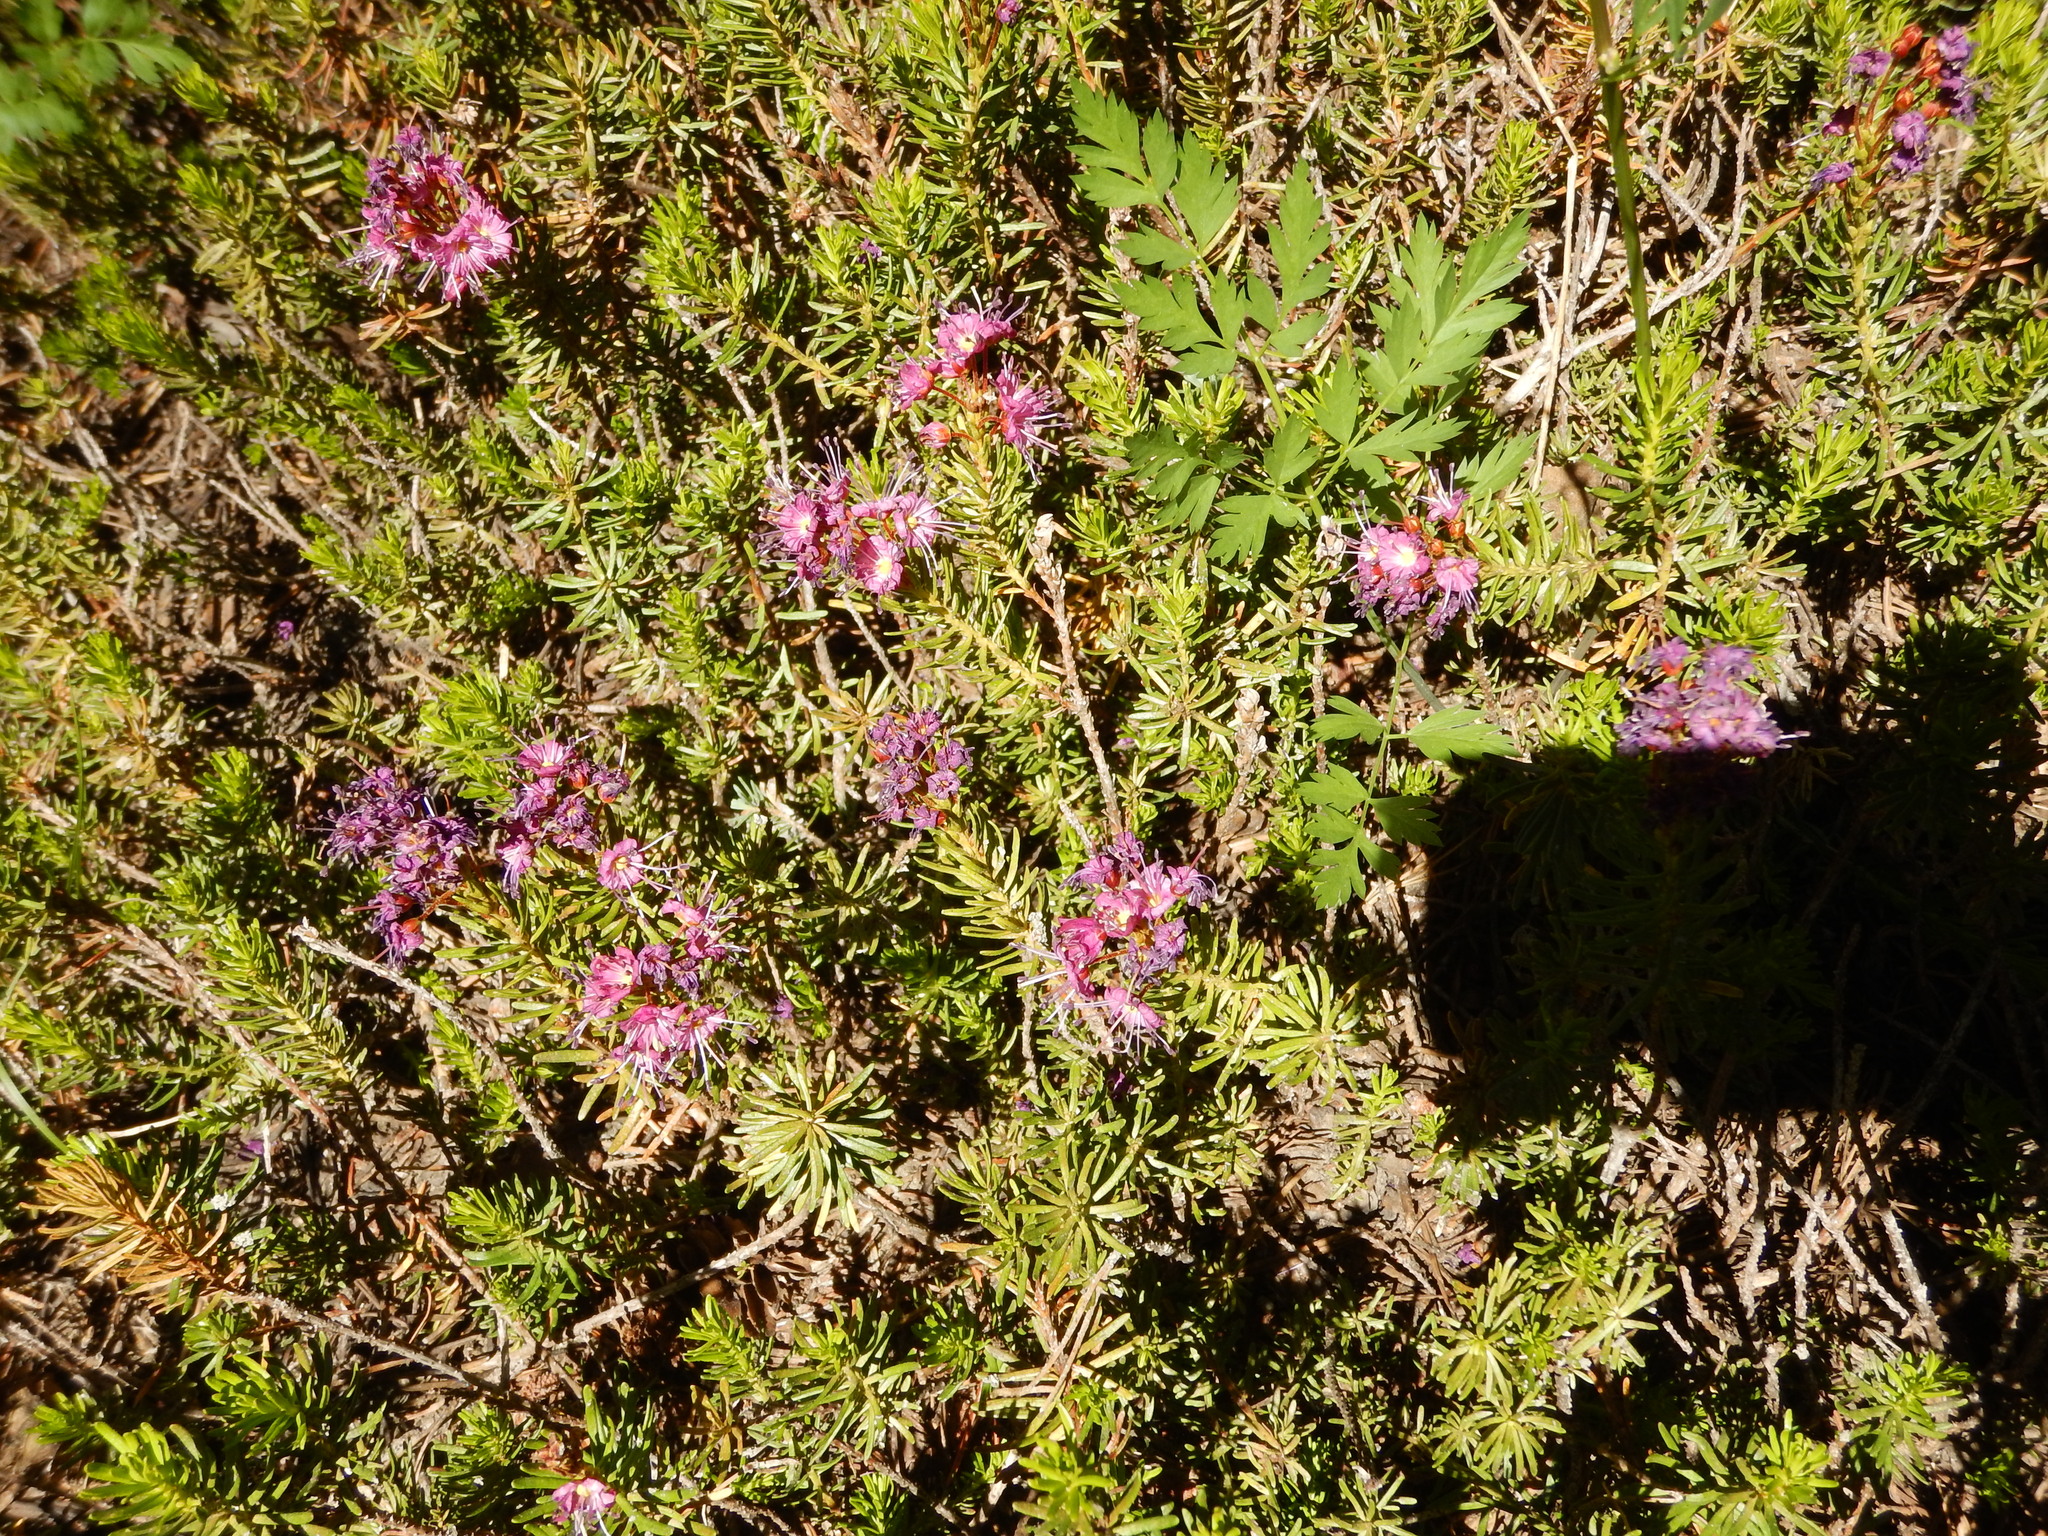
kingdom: Plantae
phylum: Tracheophyta
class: Magnoliopsida
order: Ericales
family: Ericaceae
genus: Phyllodoce
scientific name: Phyllodoce breweri
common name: Brewer's mountain-heather
